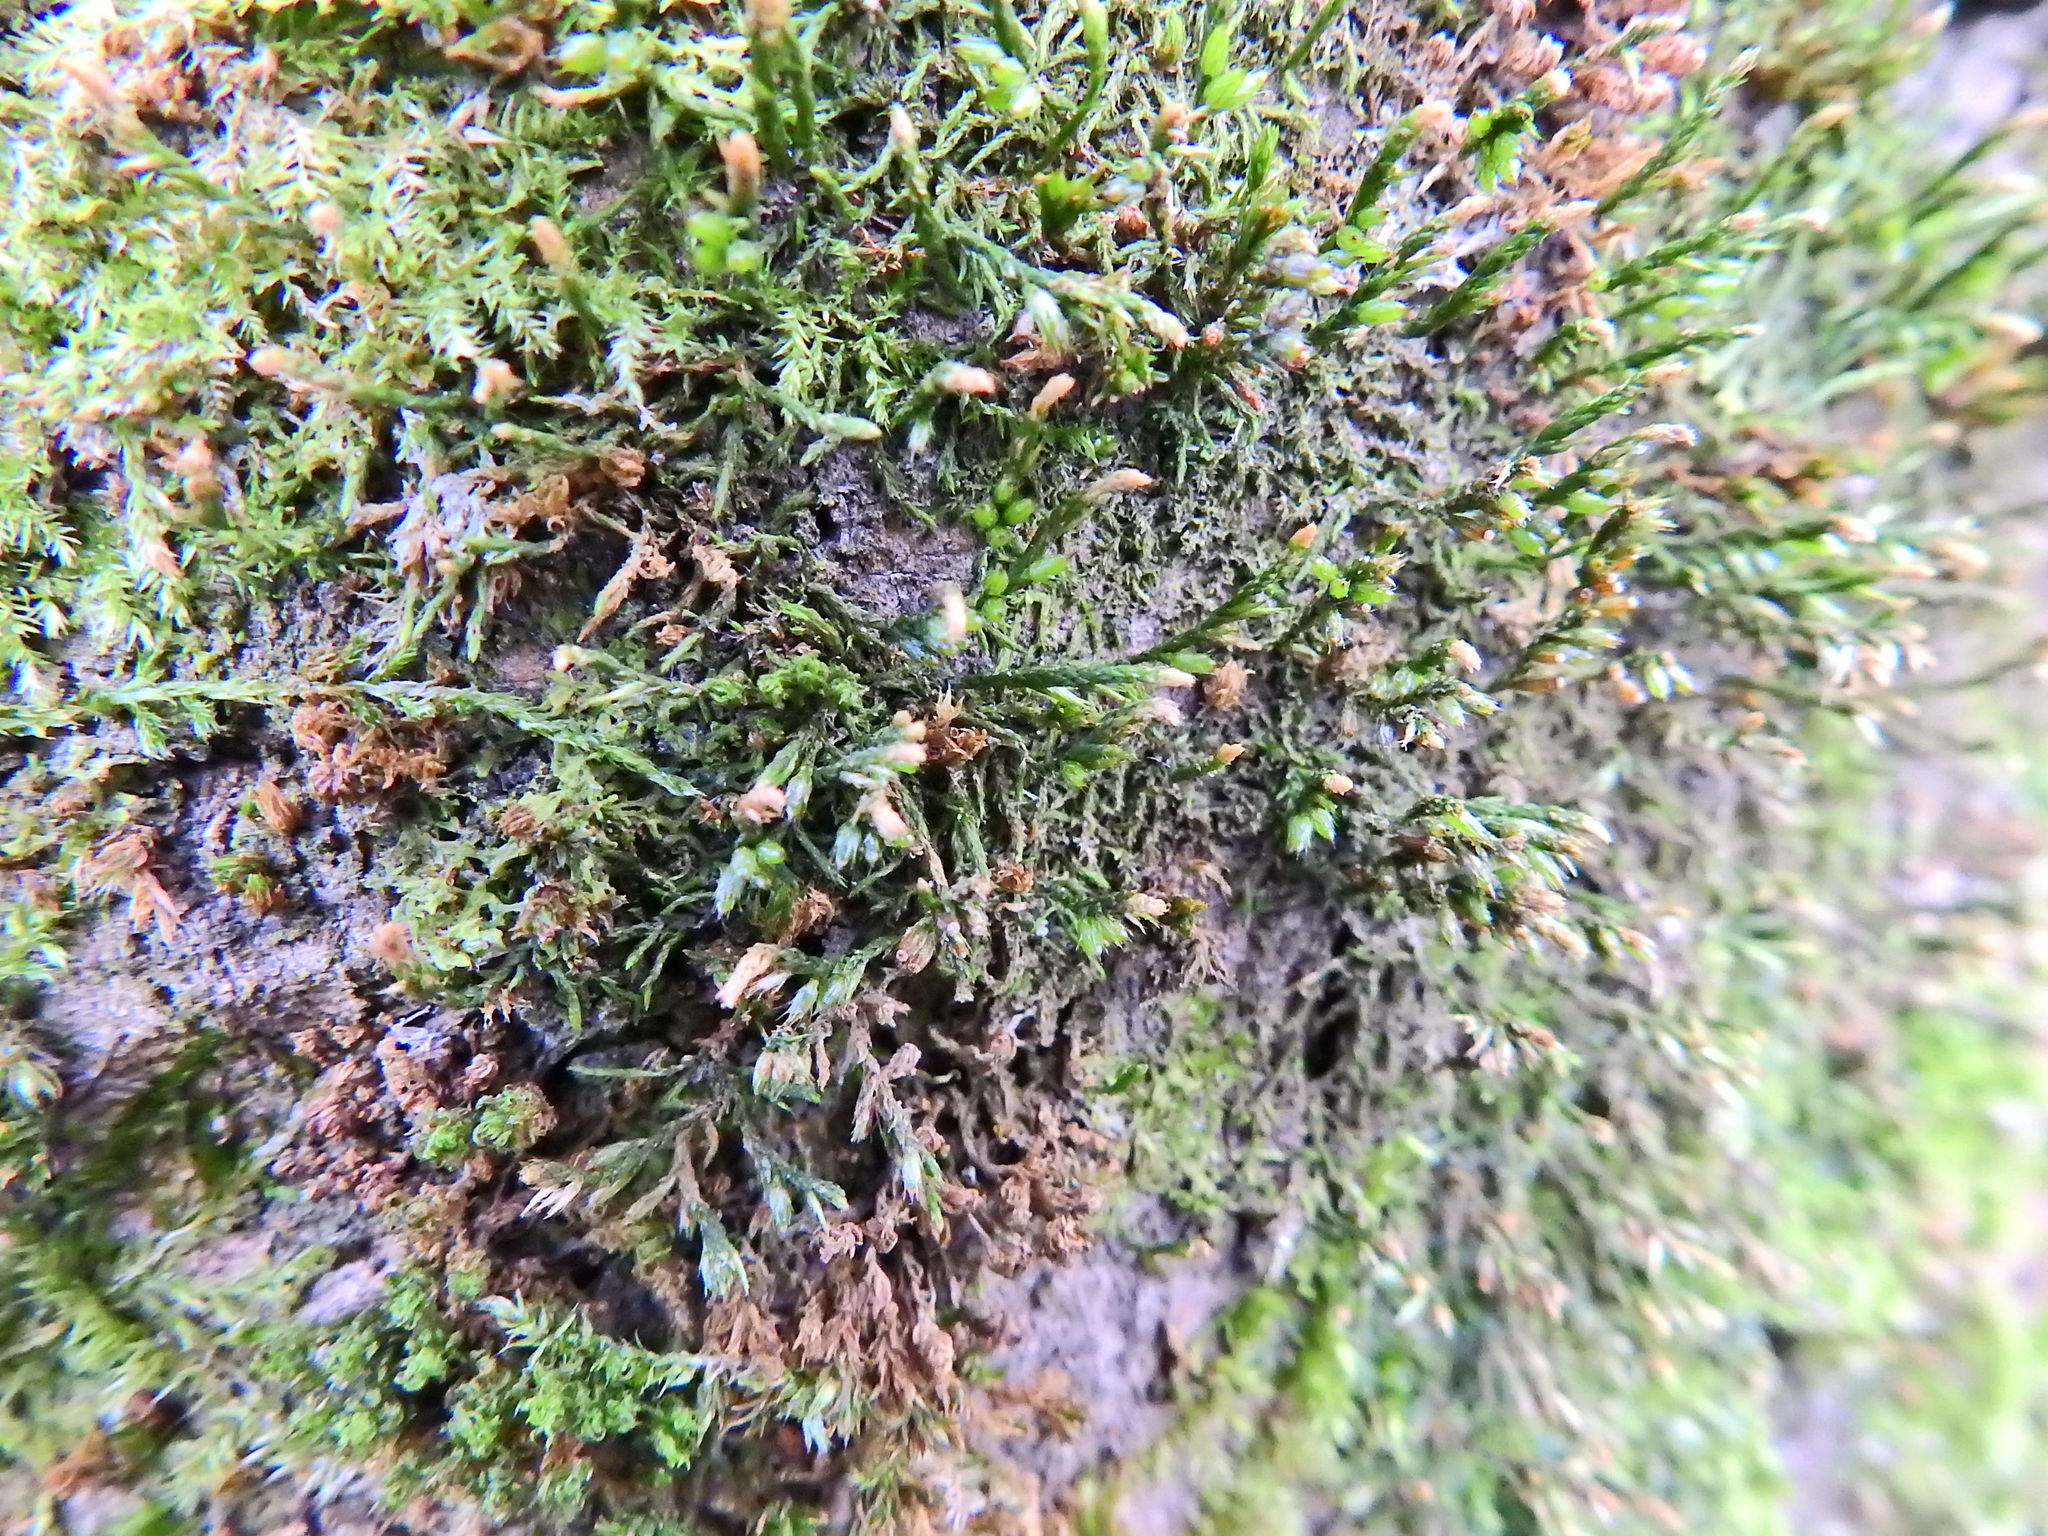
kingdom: Plantae
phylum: Bryophyta
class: Bryopsida
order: Hypnales
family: Cryphaeaceae
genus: Cryphaea
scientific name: Cryphaea heteromalla
